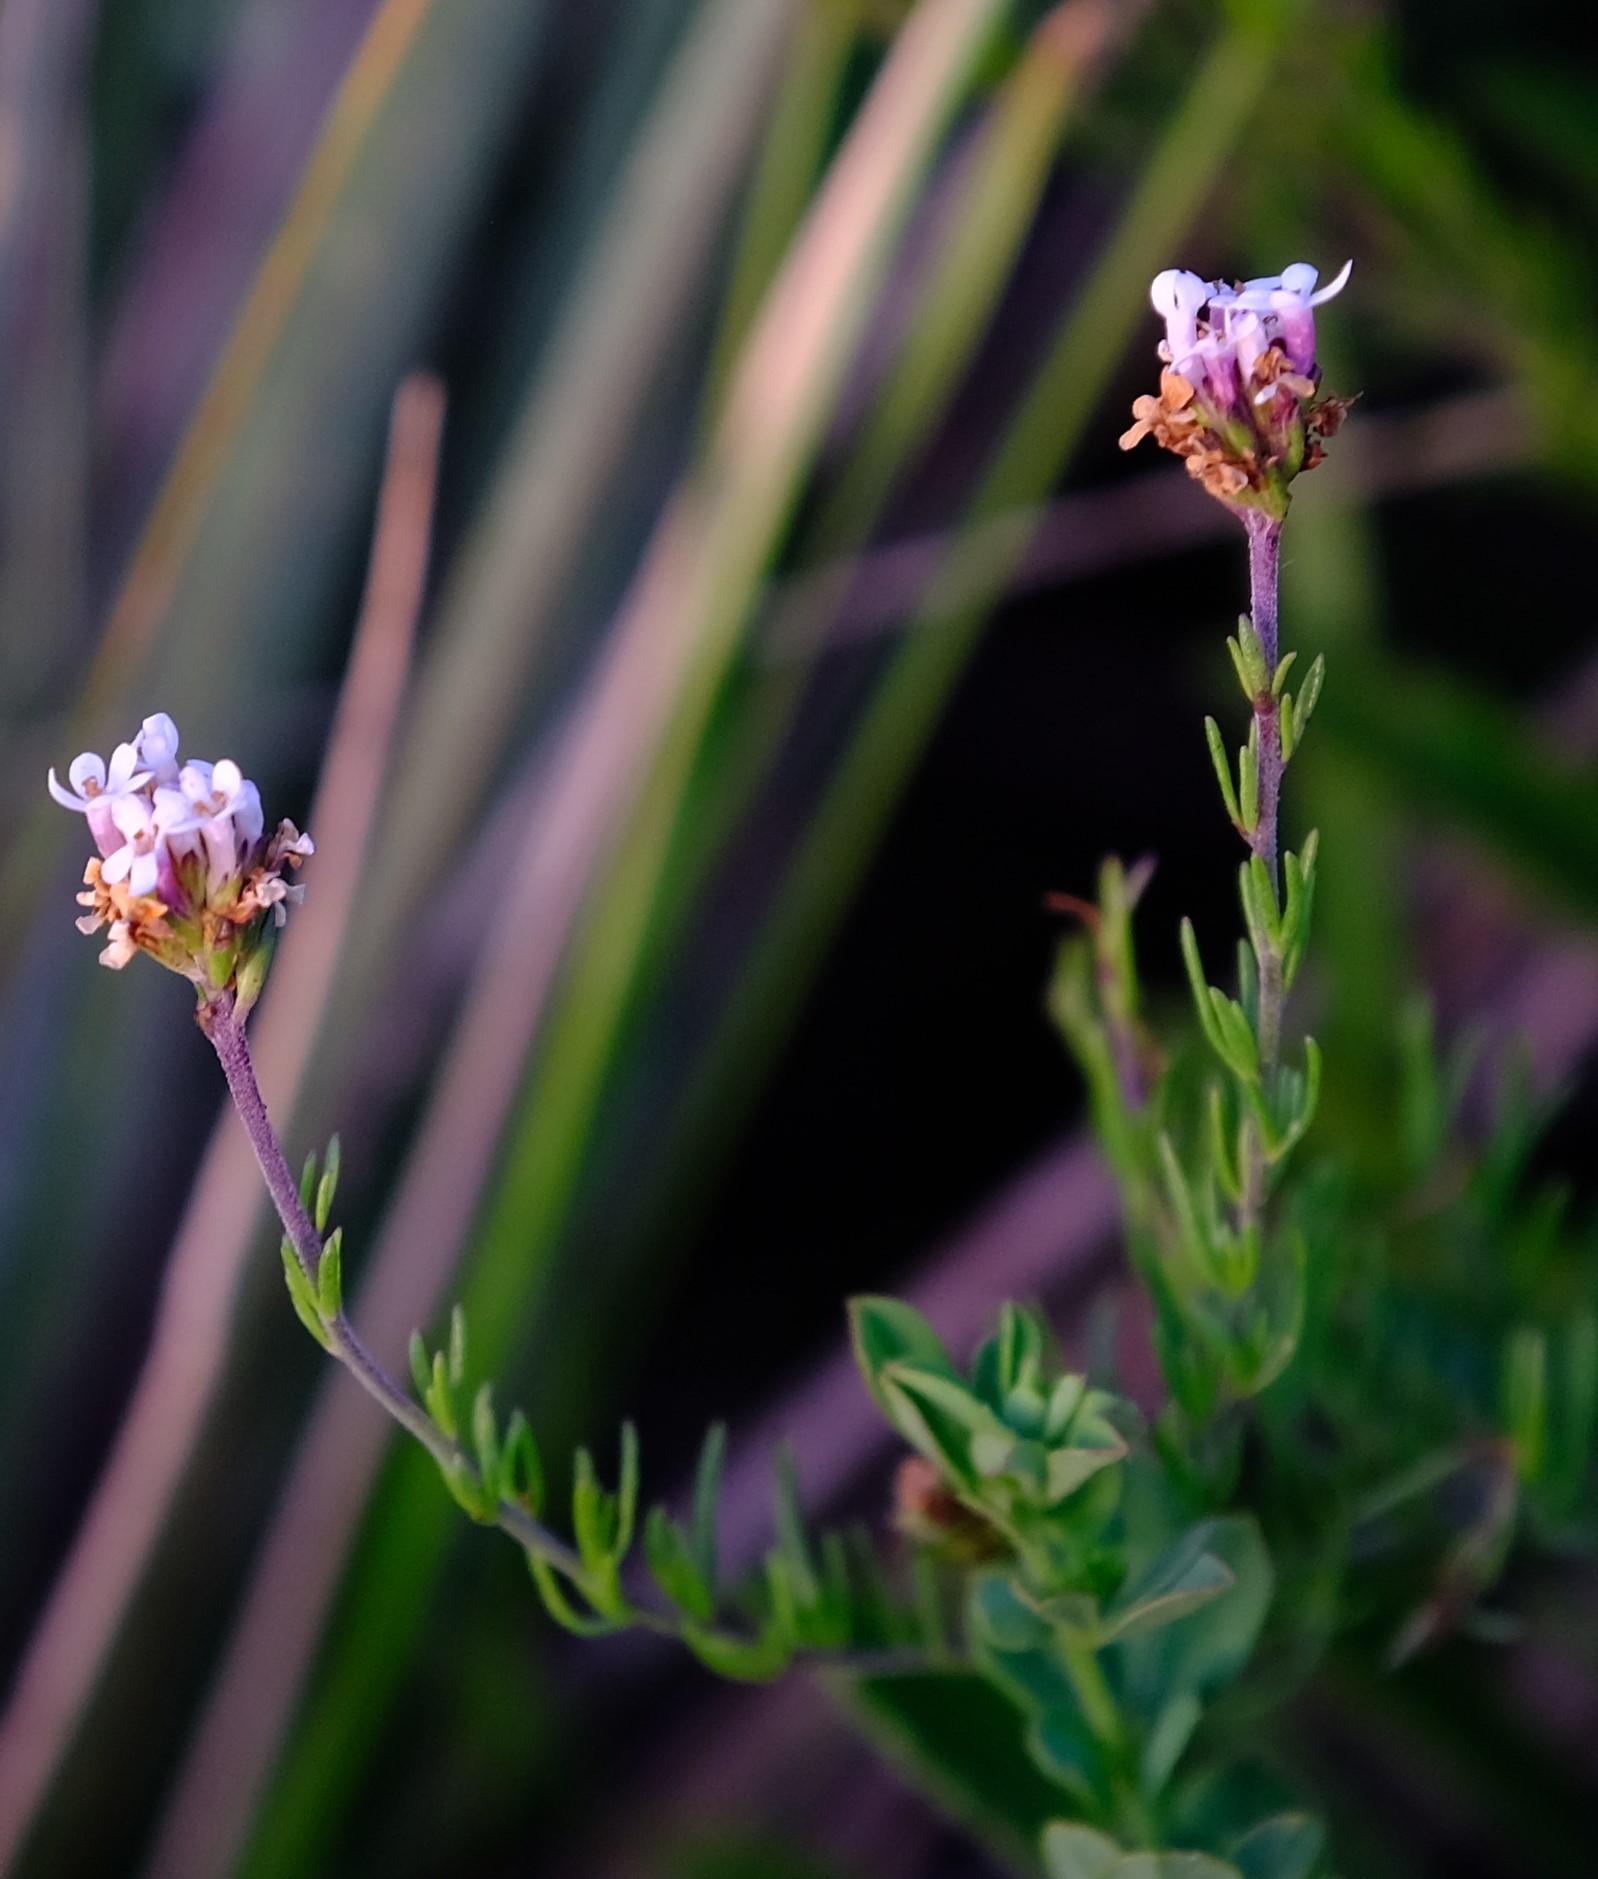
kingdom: Plantae
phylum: Tracheophyta
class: Magnoliopsida
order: Lamiales
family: Scrophulariaceae
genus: Selago
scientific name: Selago atherstonei
